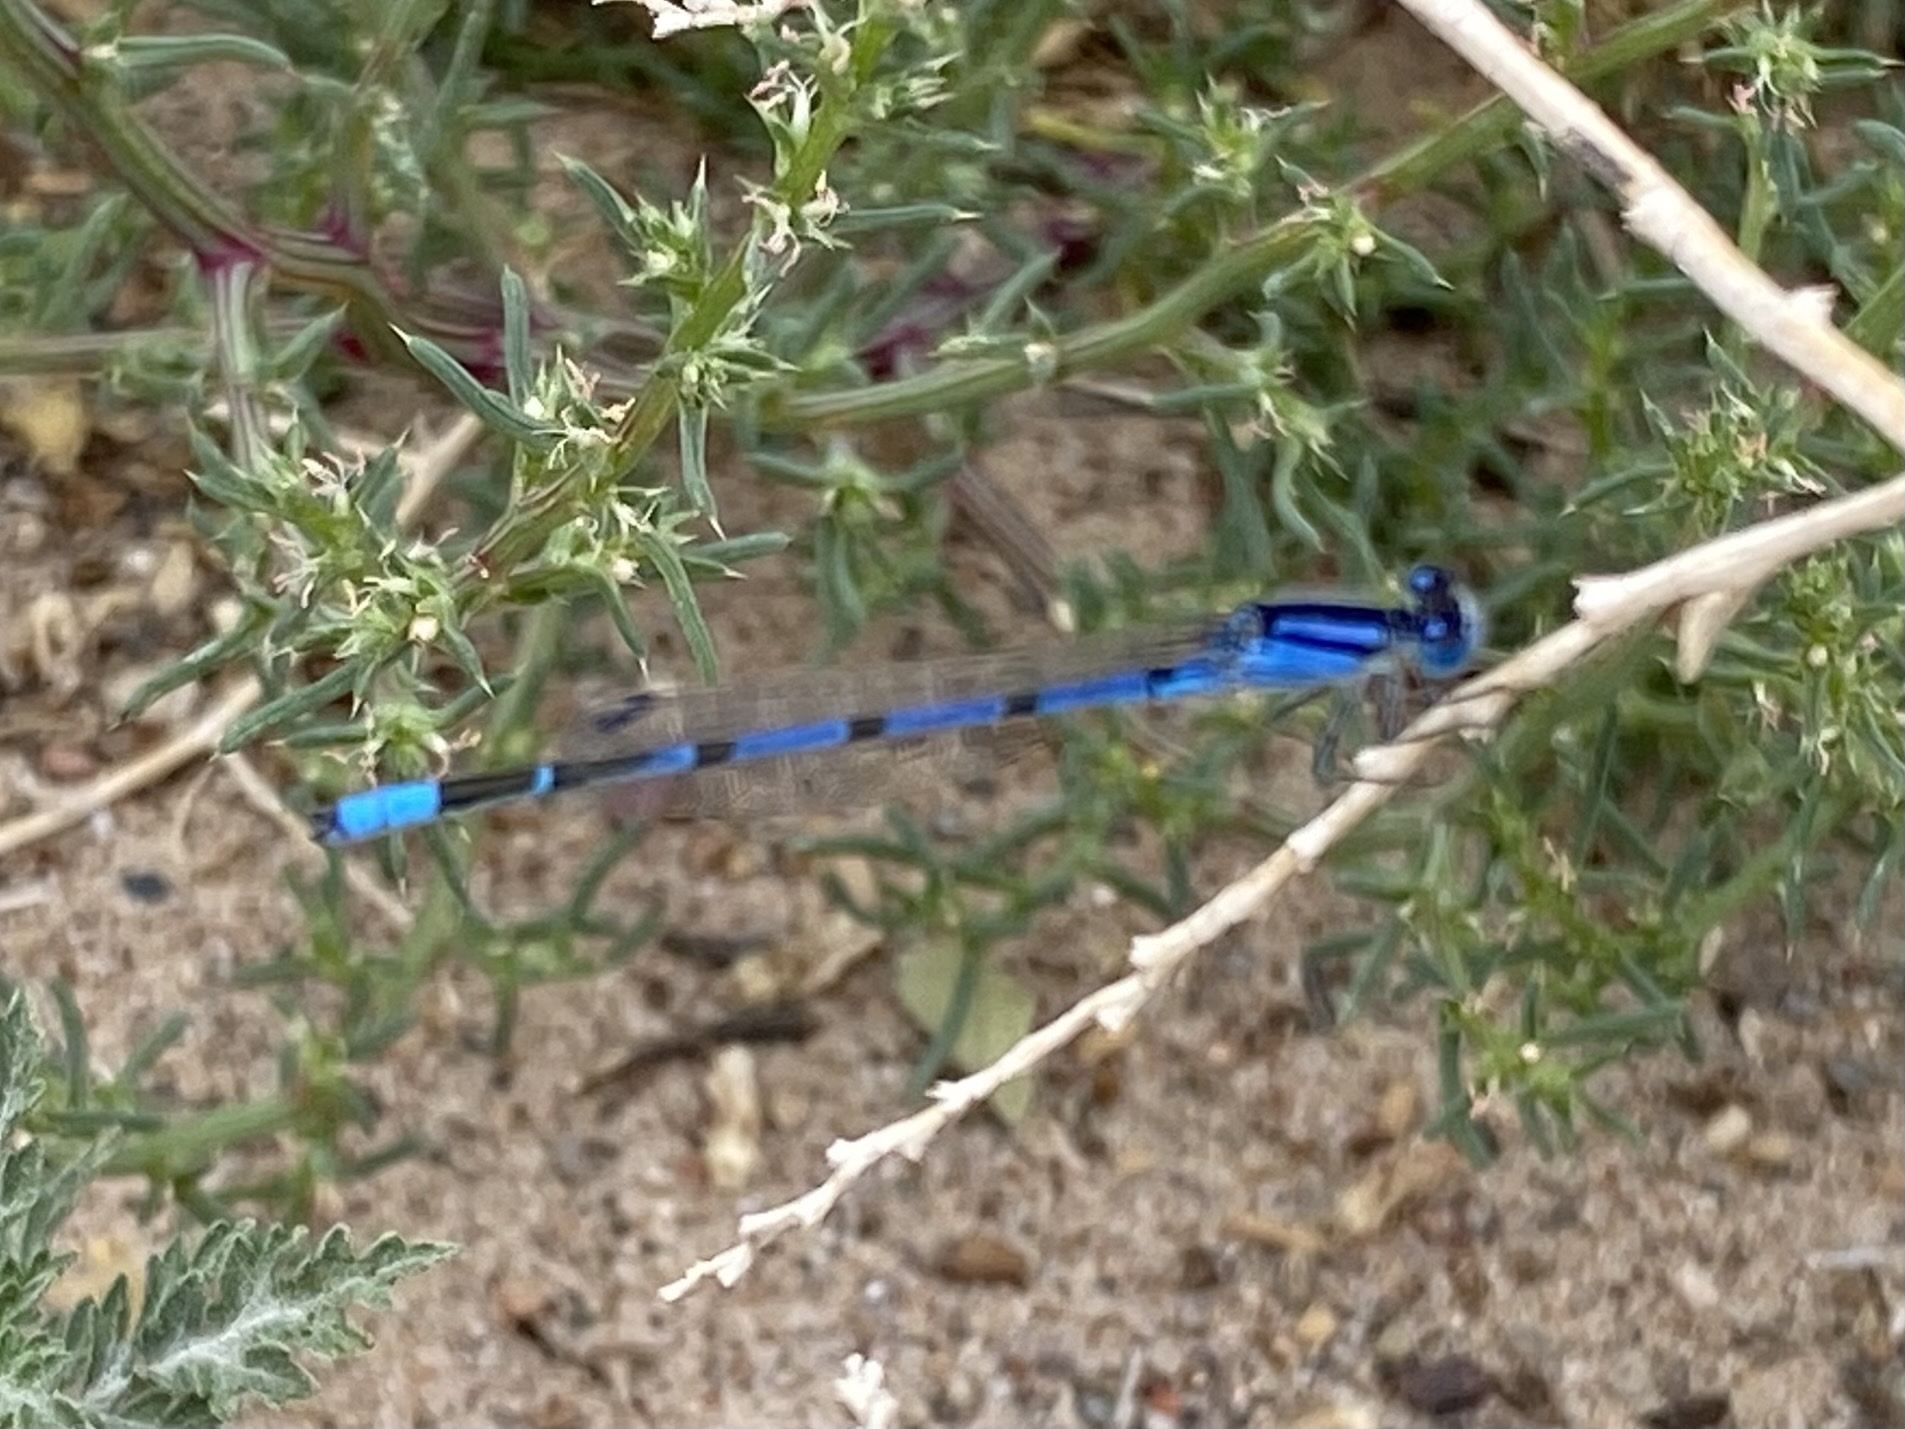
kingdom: Animalia
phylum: Arthropoda
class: Insecta
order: Odonata
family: Coenagrionidae
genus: Enallagma
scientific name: Enallagma civile
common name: Damselfly
